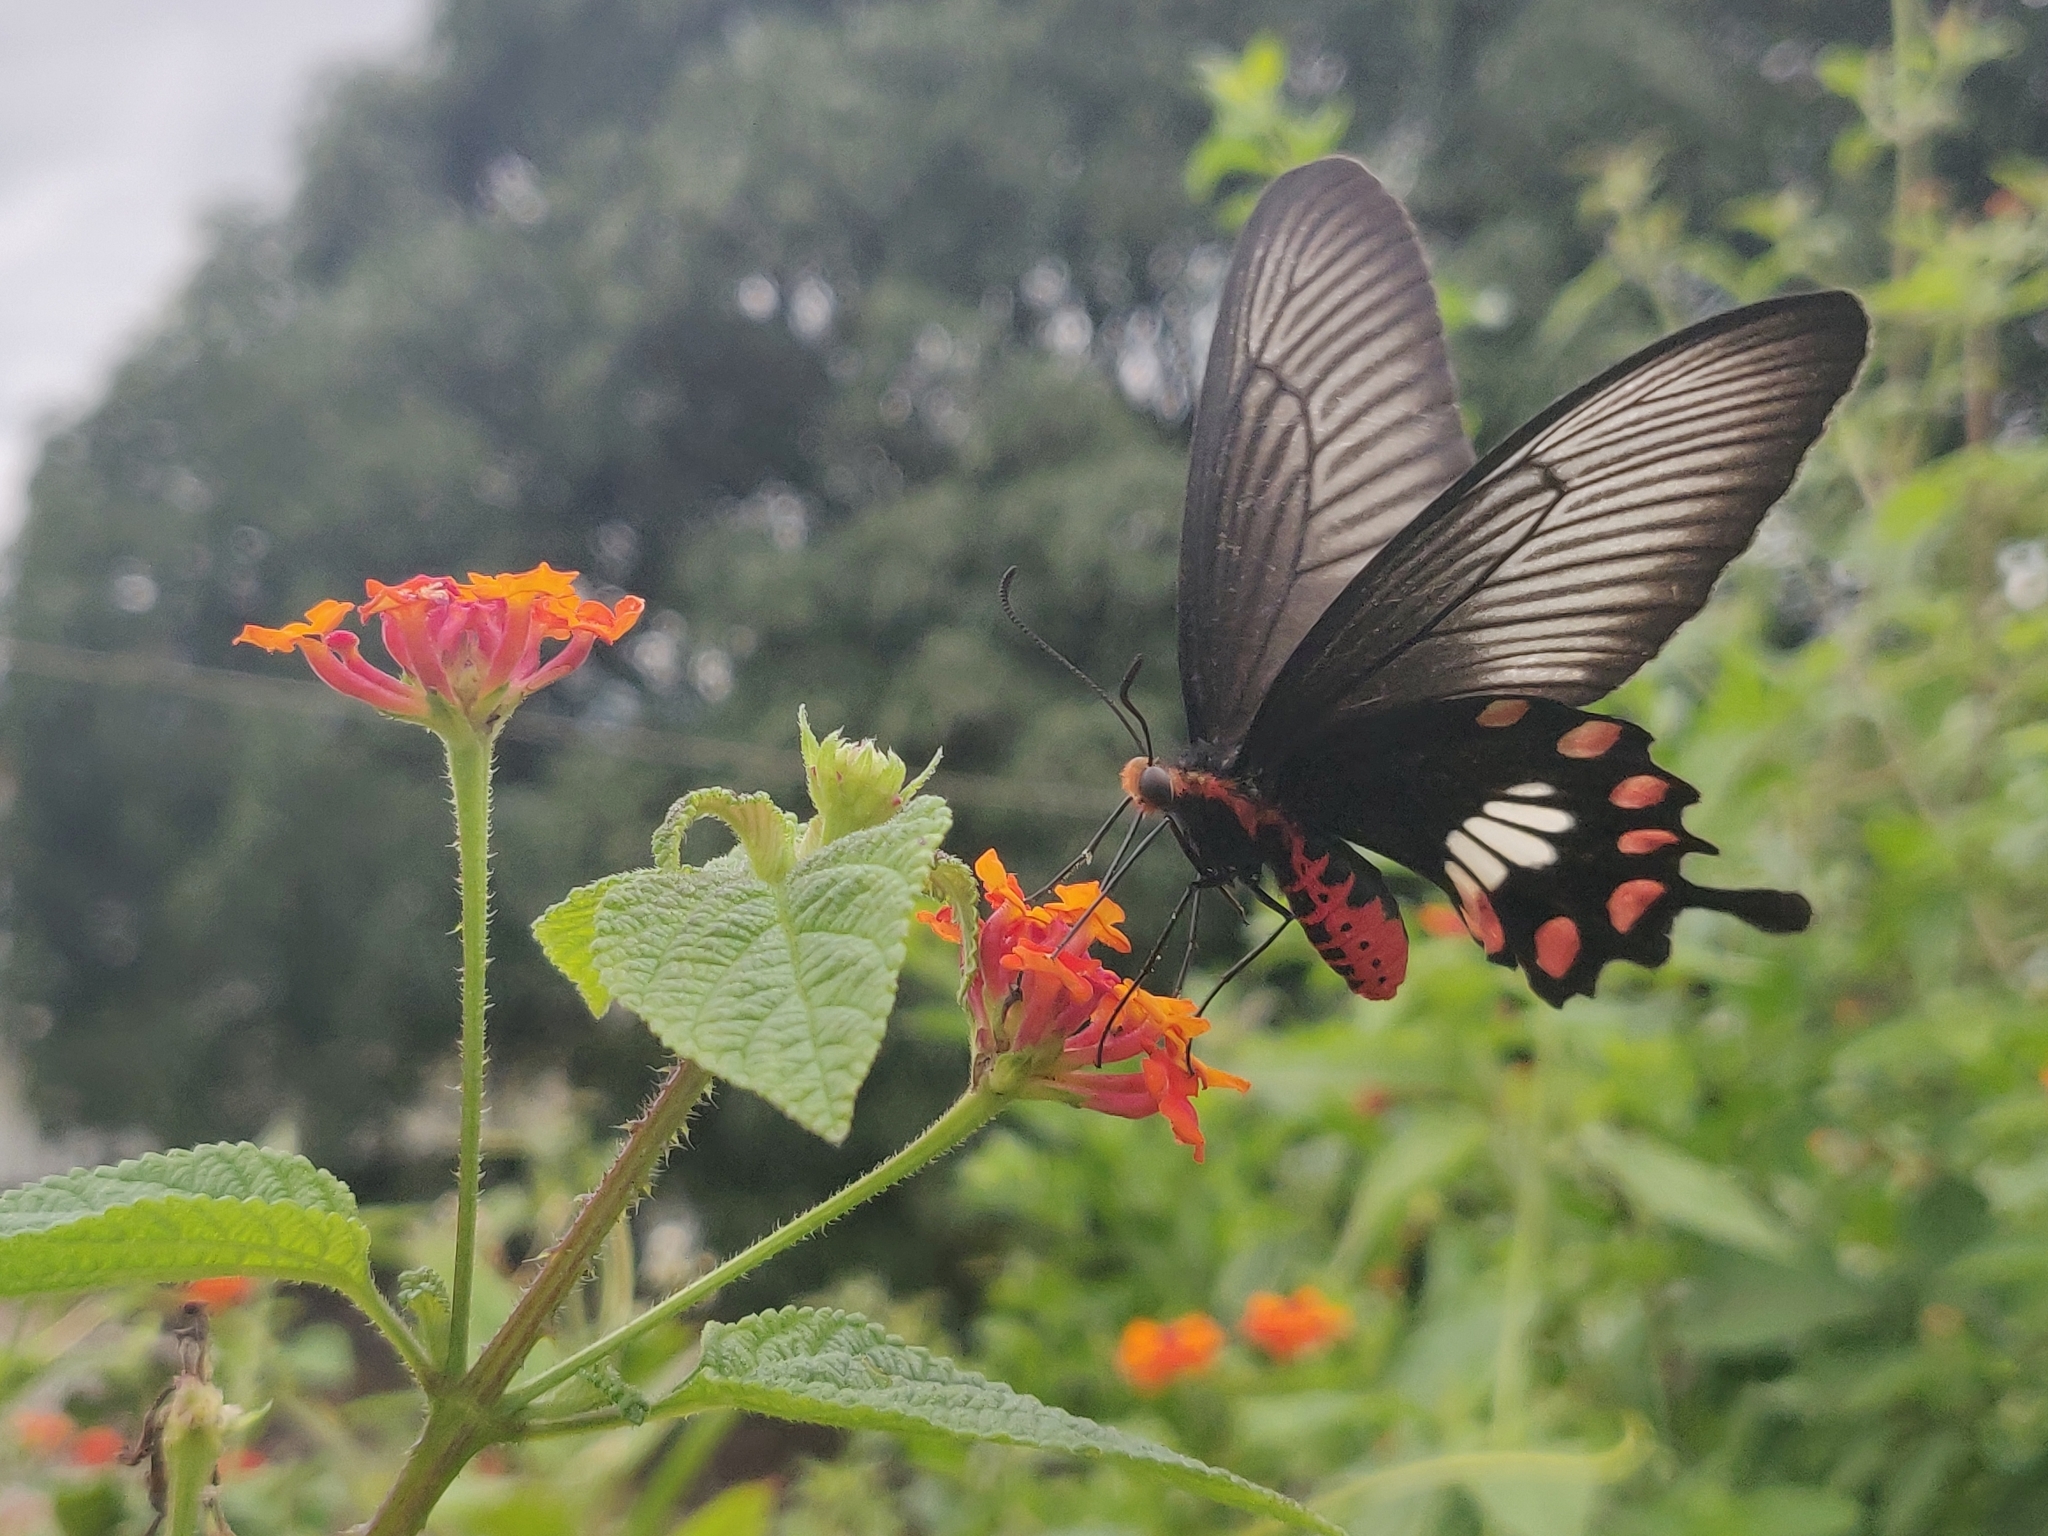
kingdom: Animalia
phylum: Arthropoda
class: Insecta
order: Lepidoptera
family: Papilionidae
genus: Pachliopta
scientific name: Pachliopta aristolochiae
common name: Common rose
